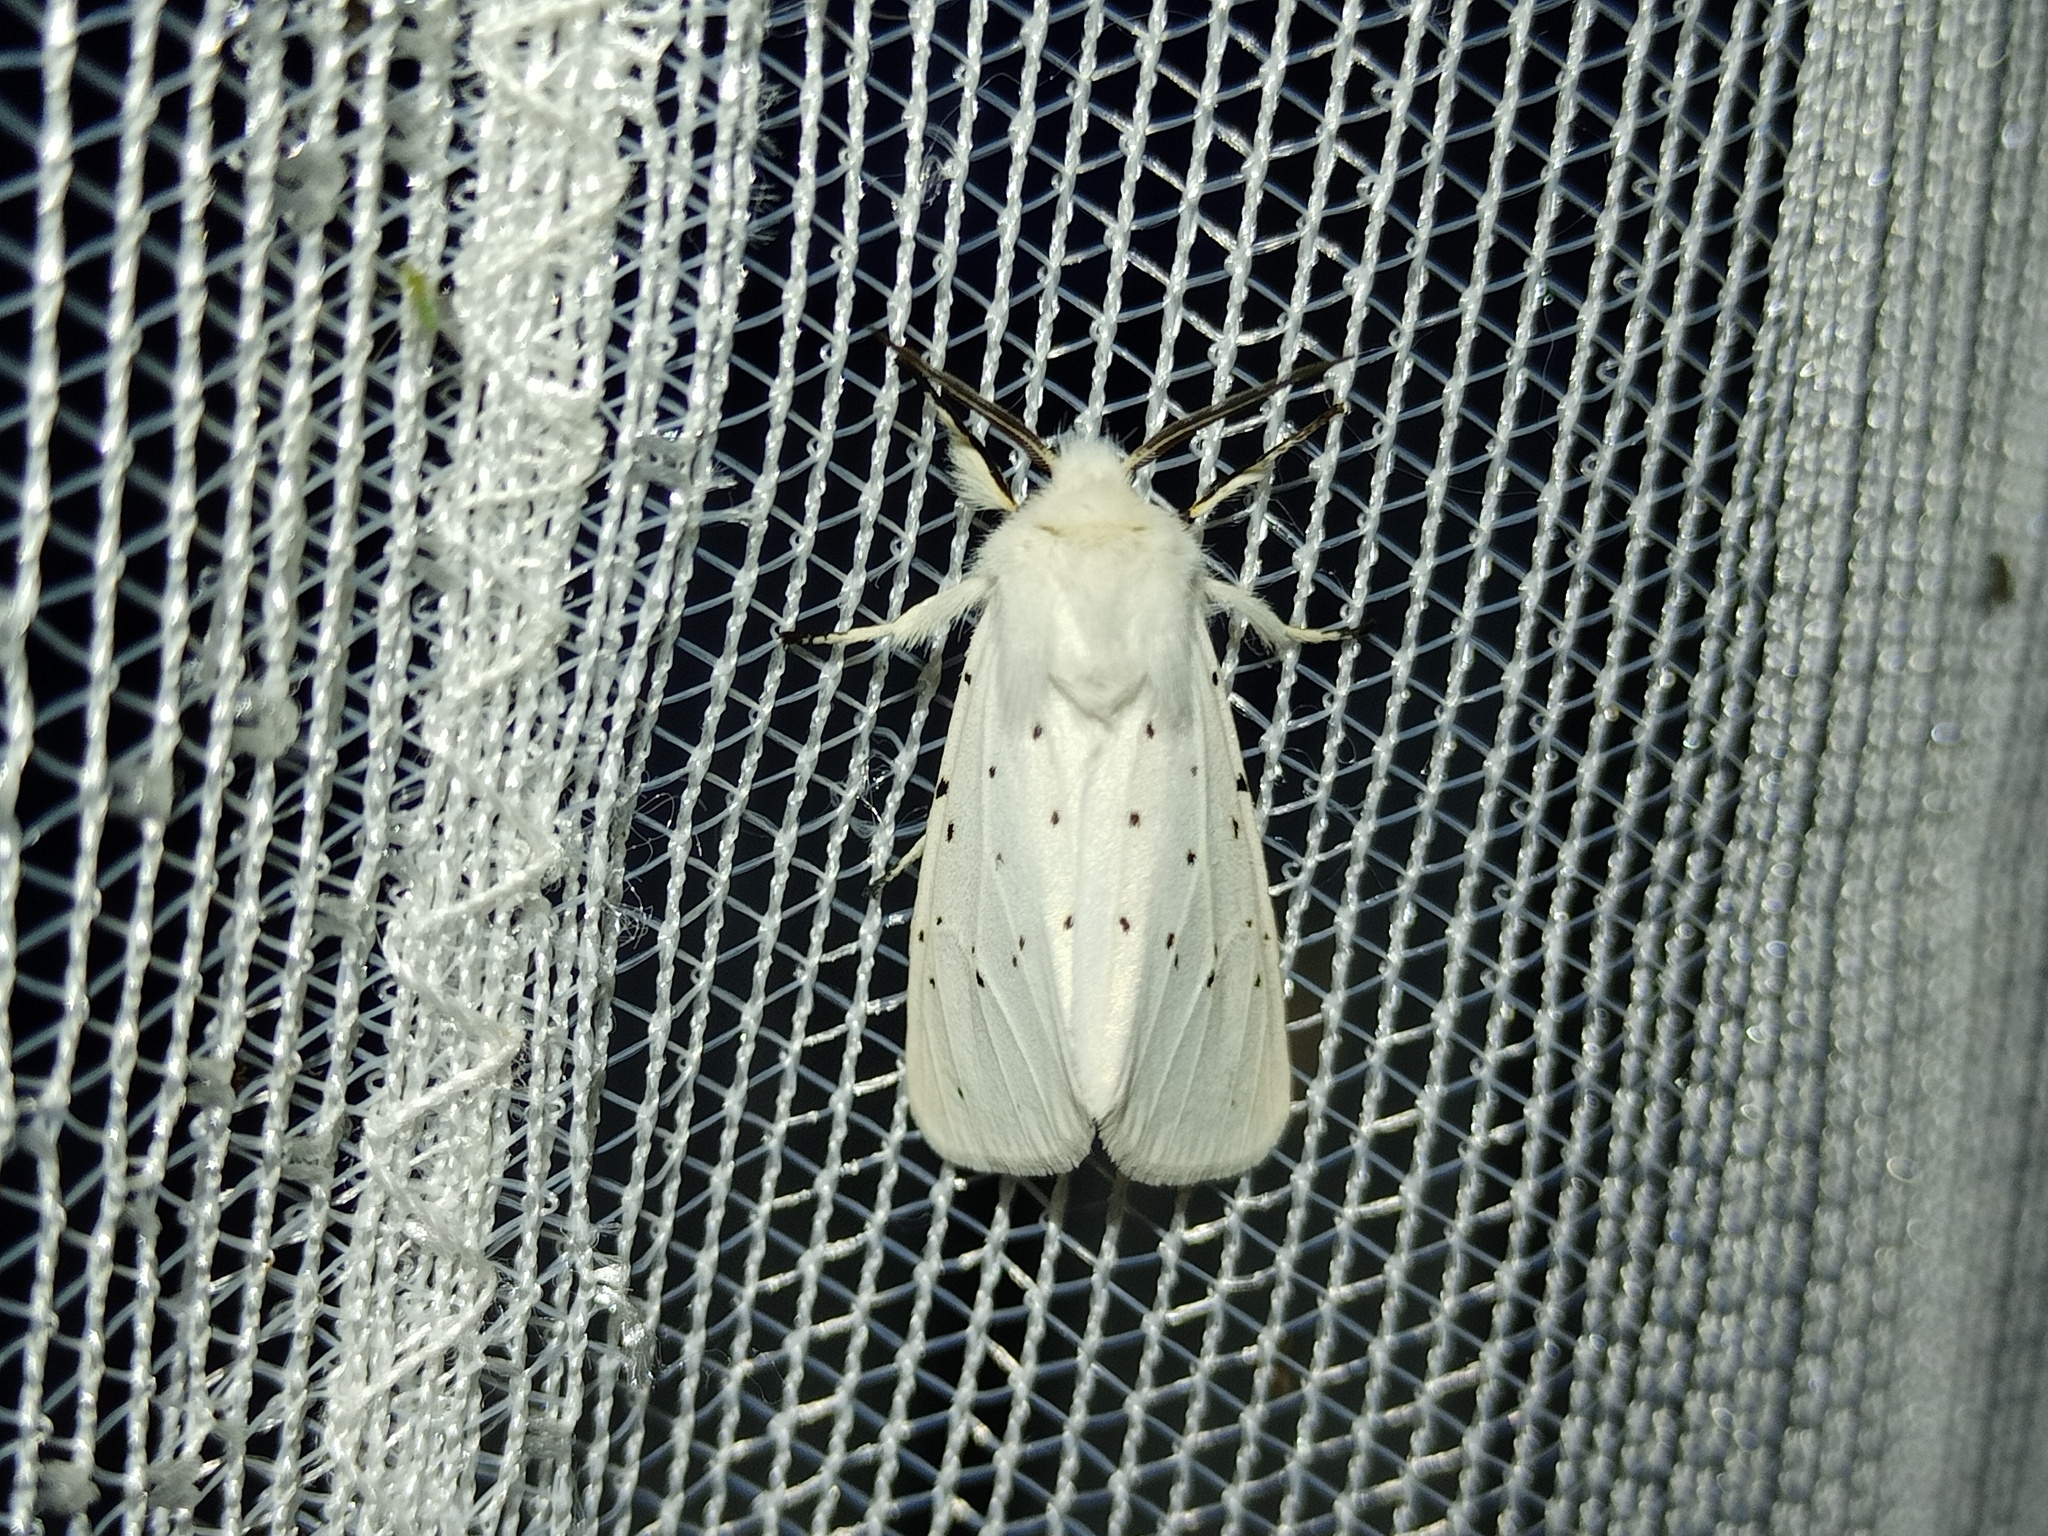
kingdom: Animalia
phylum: Arthropoda
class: Insecta
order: Lepidoptera
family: Erebidae
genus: Spilosoma
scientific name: Spilosoma urticae
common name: Water ermine
